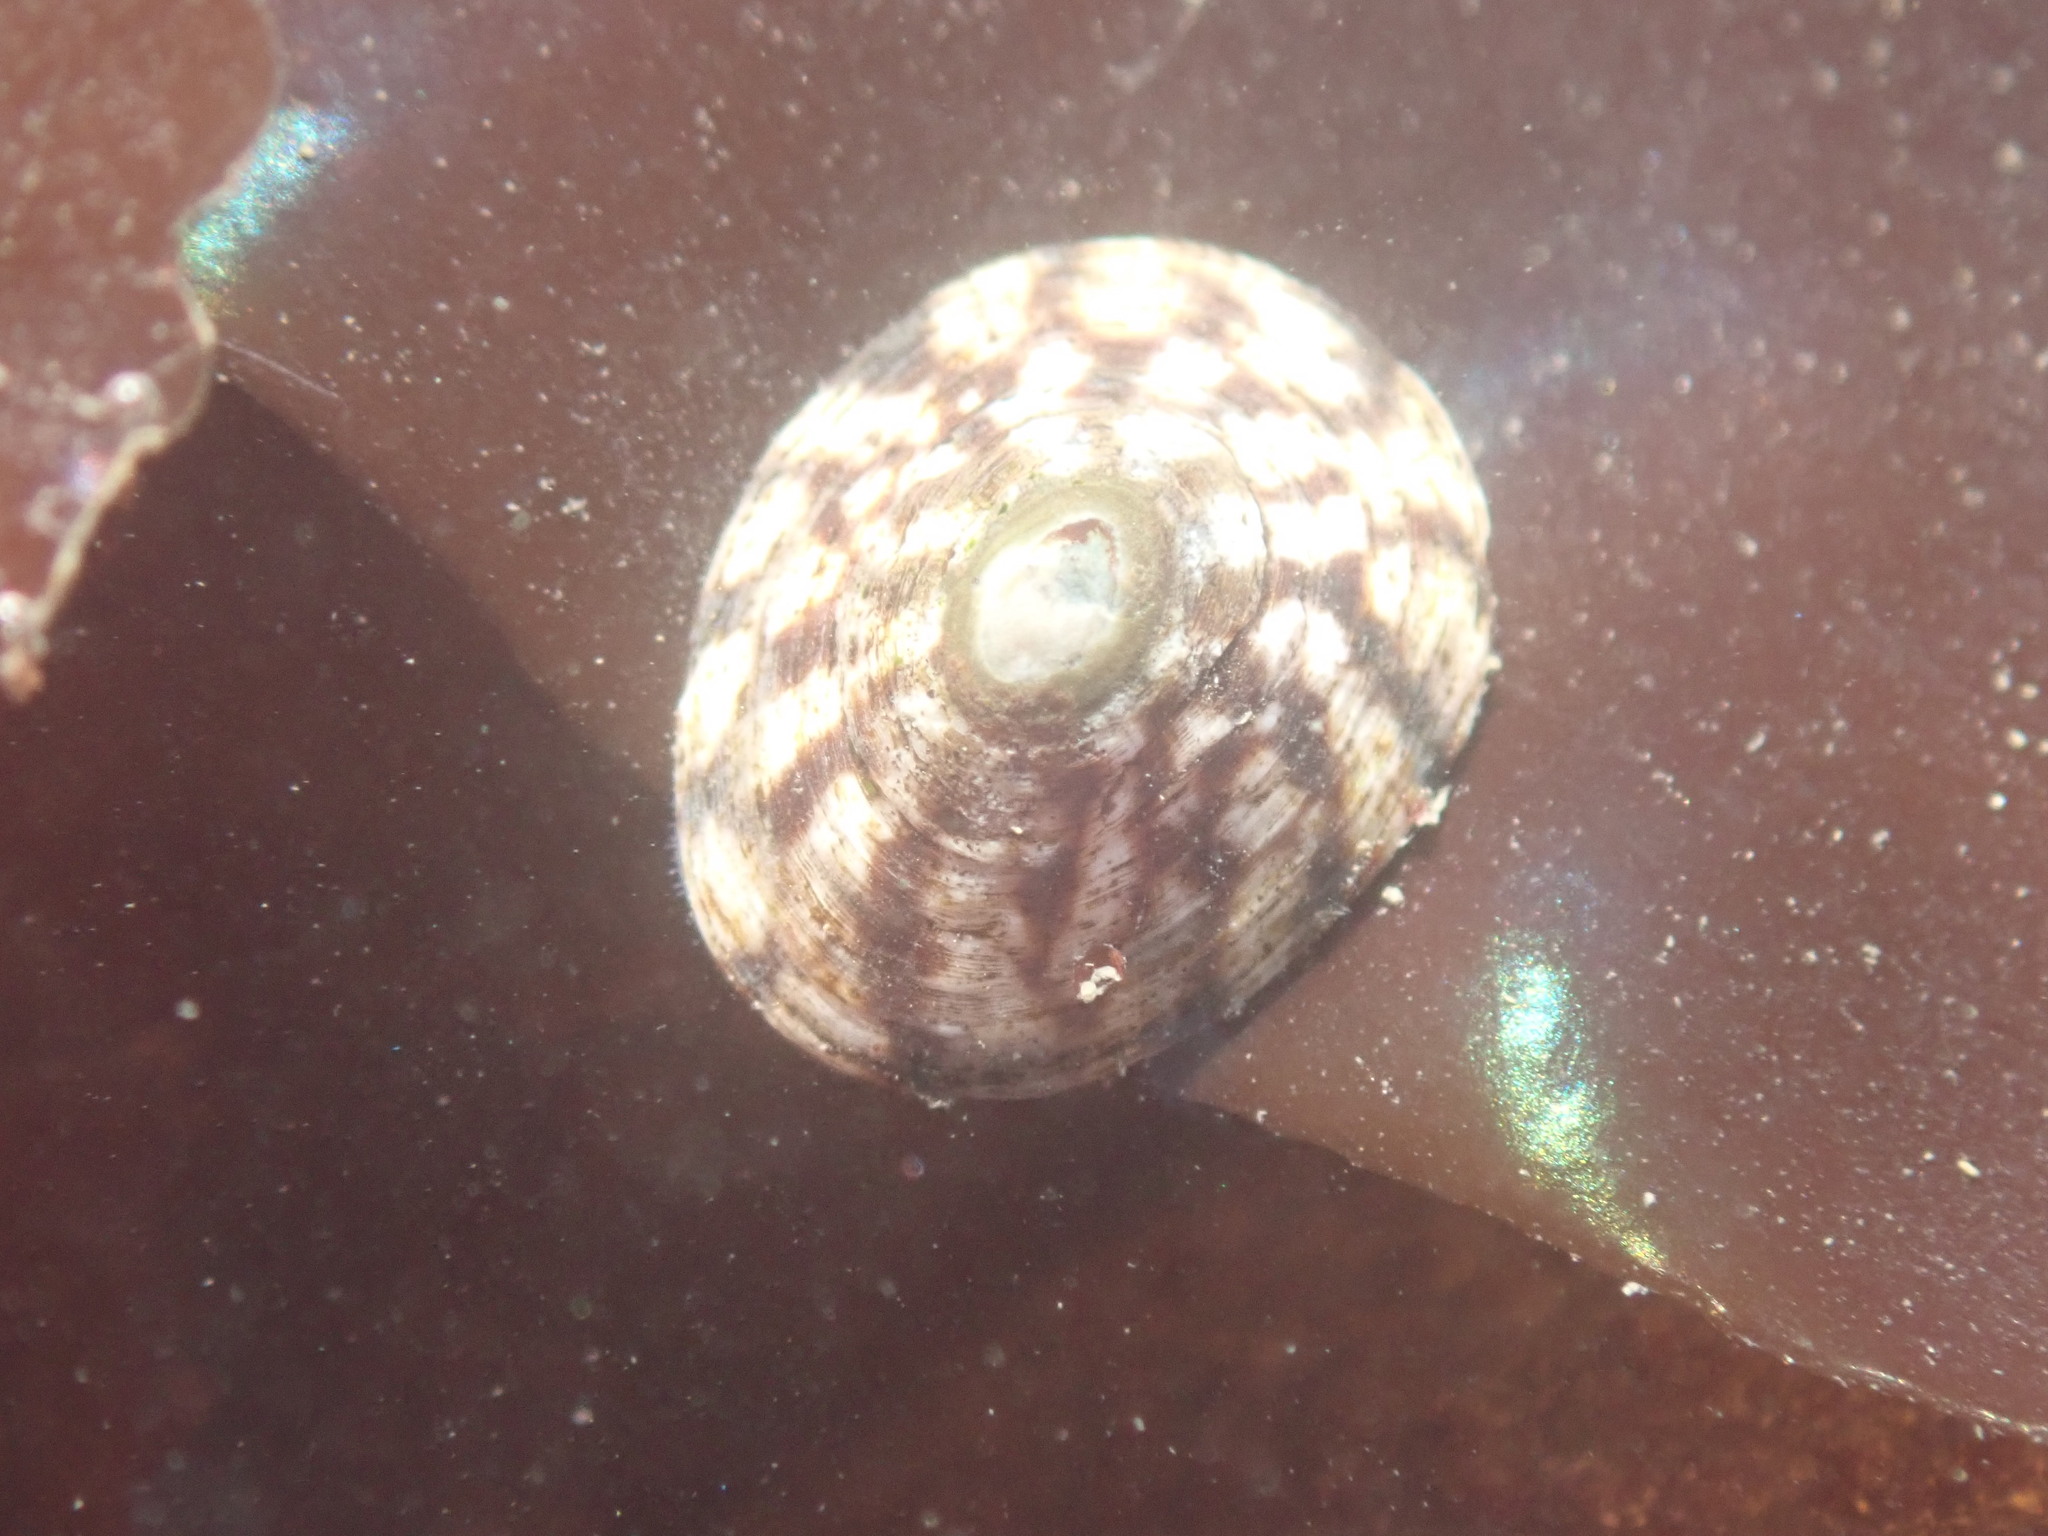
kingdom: Animalia
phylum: Mollusca
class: Gastropoda
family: Lottiidae
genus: Lottia
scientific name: Lottia pelta
